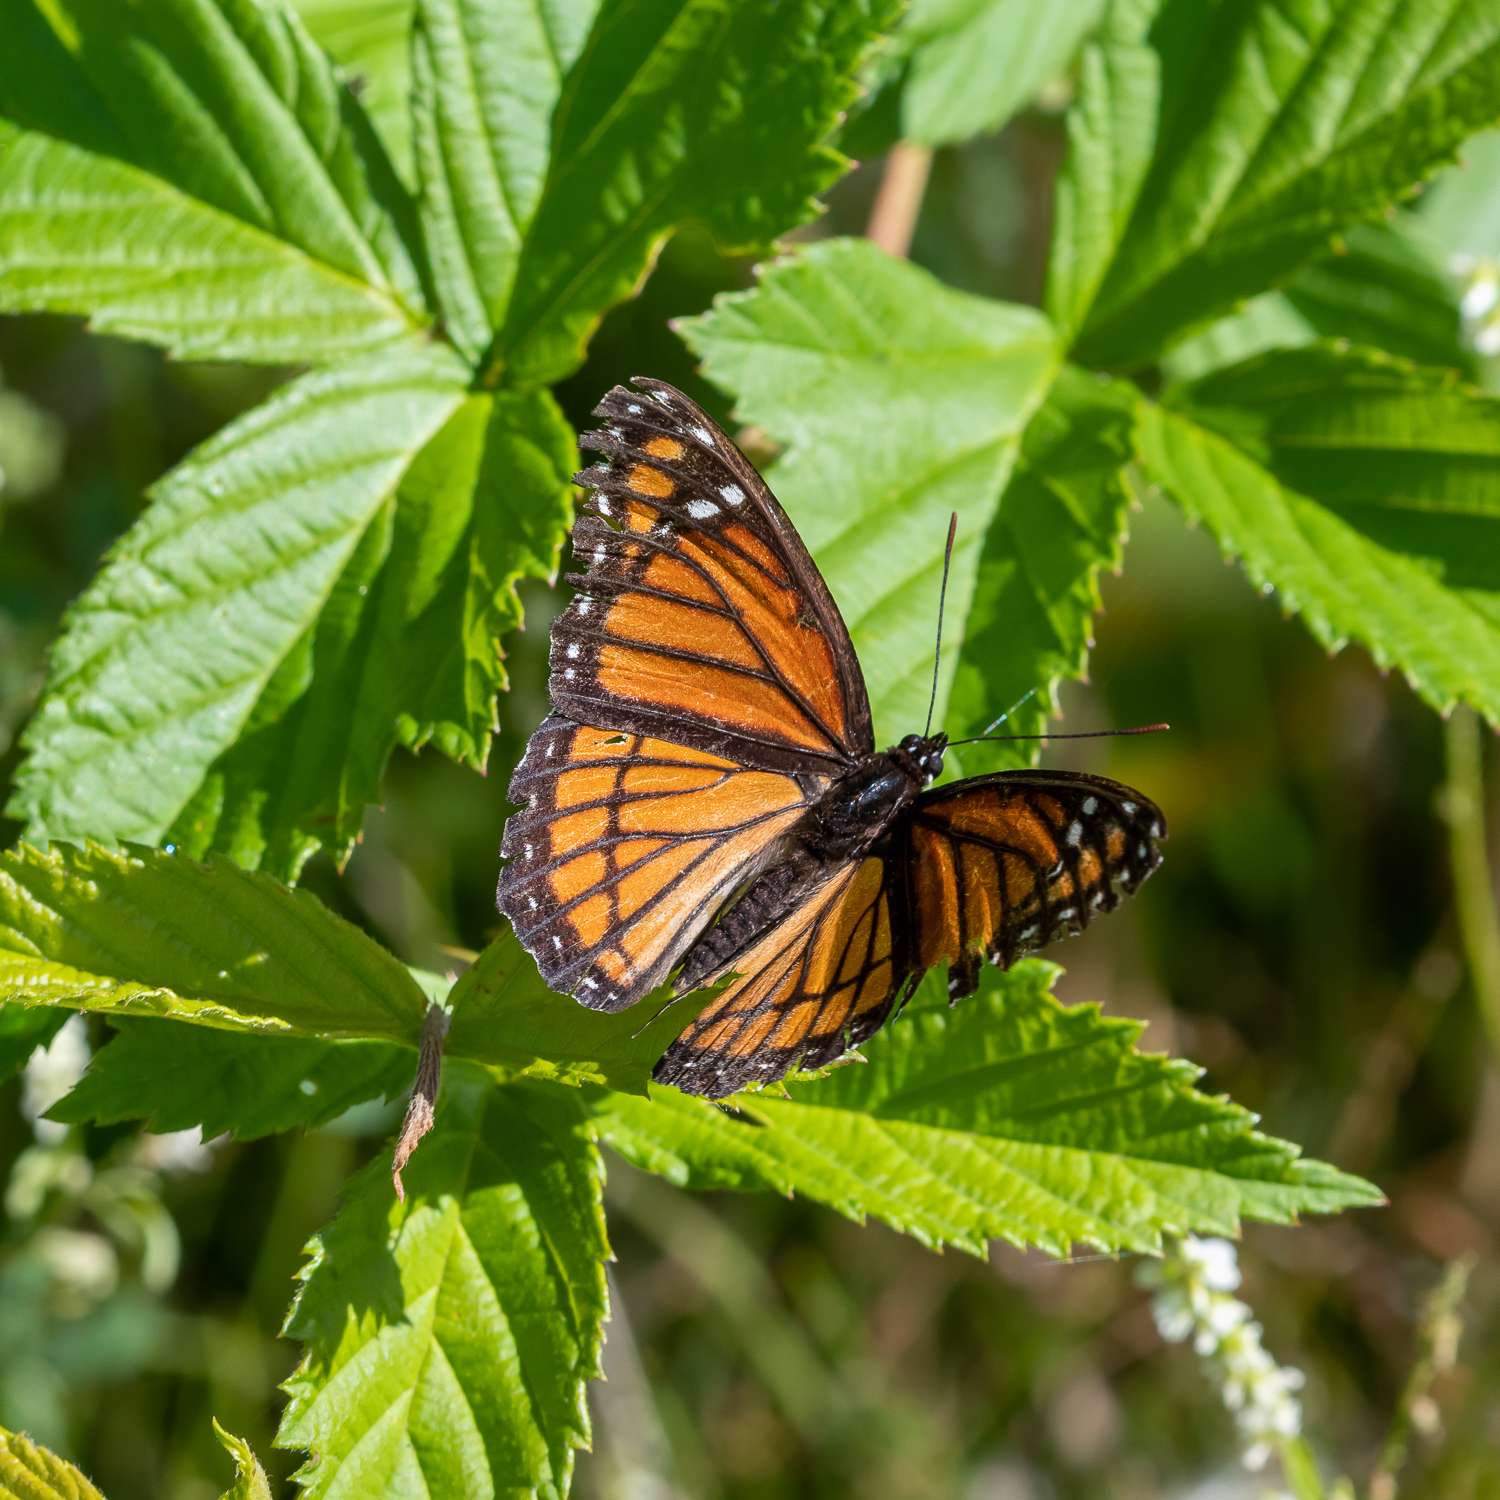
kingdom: Animalia
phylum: Arthropoda
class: Insecta
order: Lepidoptera
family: Nymphalidae
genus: Limenitis
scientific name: Limenitis archippus
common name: Viceroy
